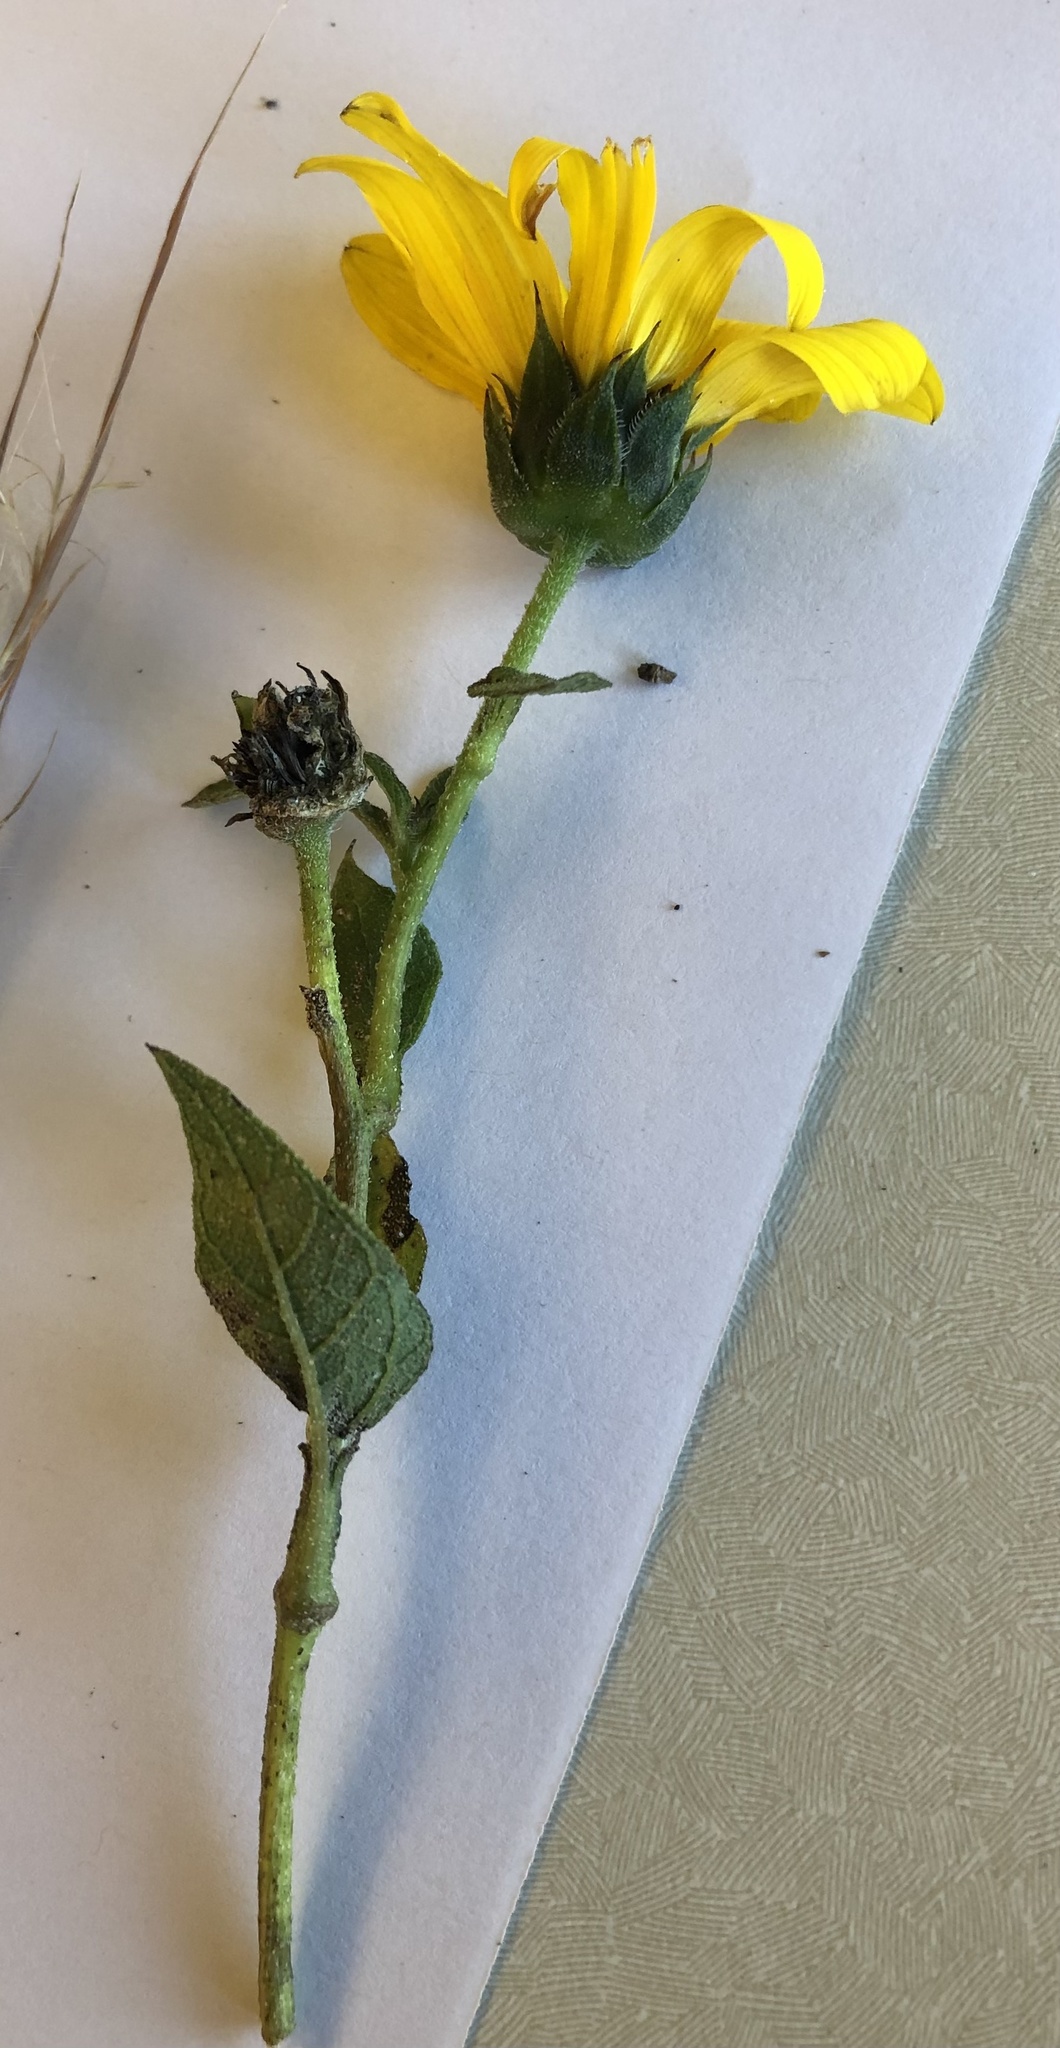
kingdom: Plantae
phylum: Tracheophyta
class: Magnoliopsida
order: Asterales
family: Asteraceae
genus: Helianthus
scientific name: Helianthus annuus
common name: Sunflower
